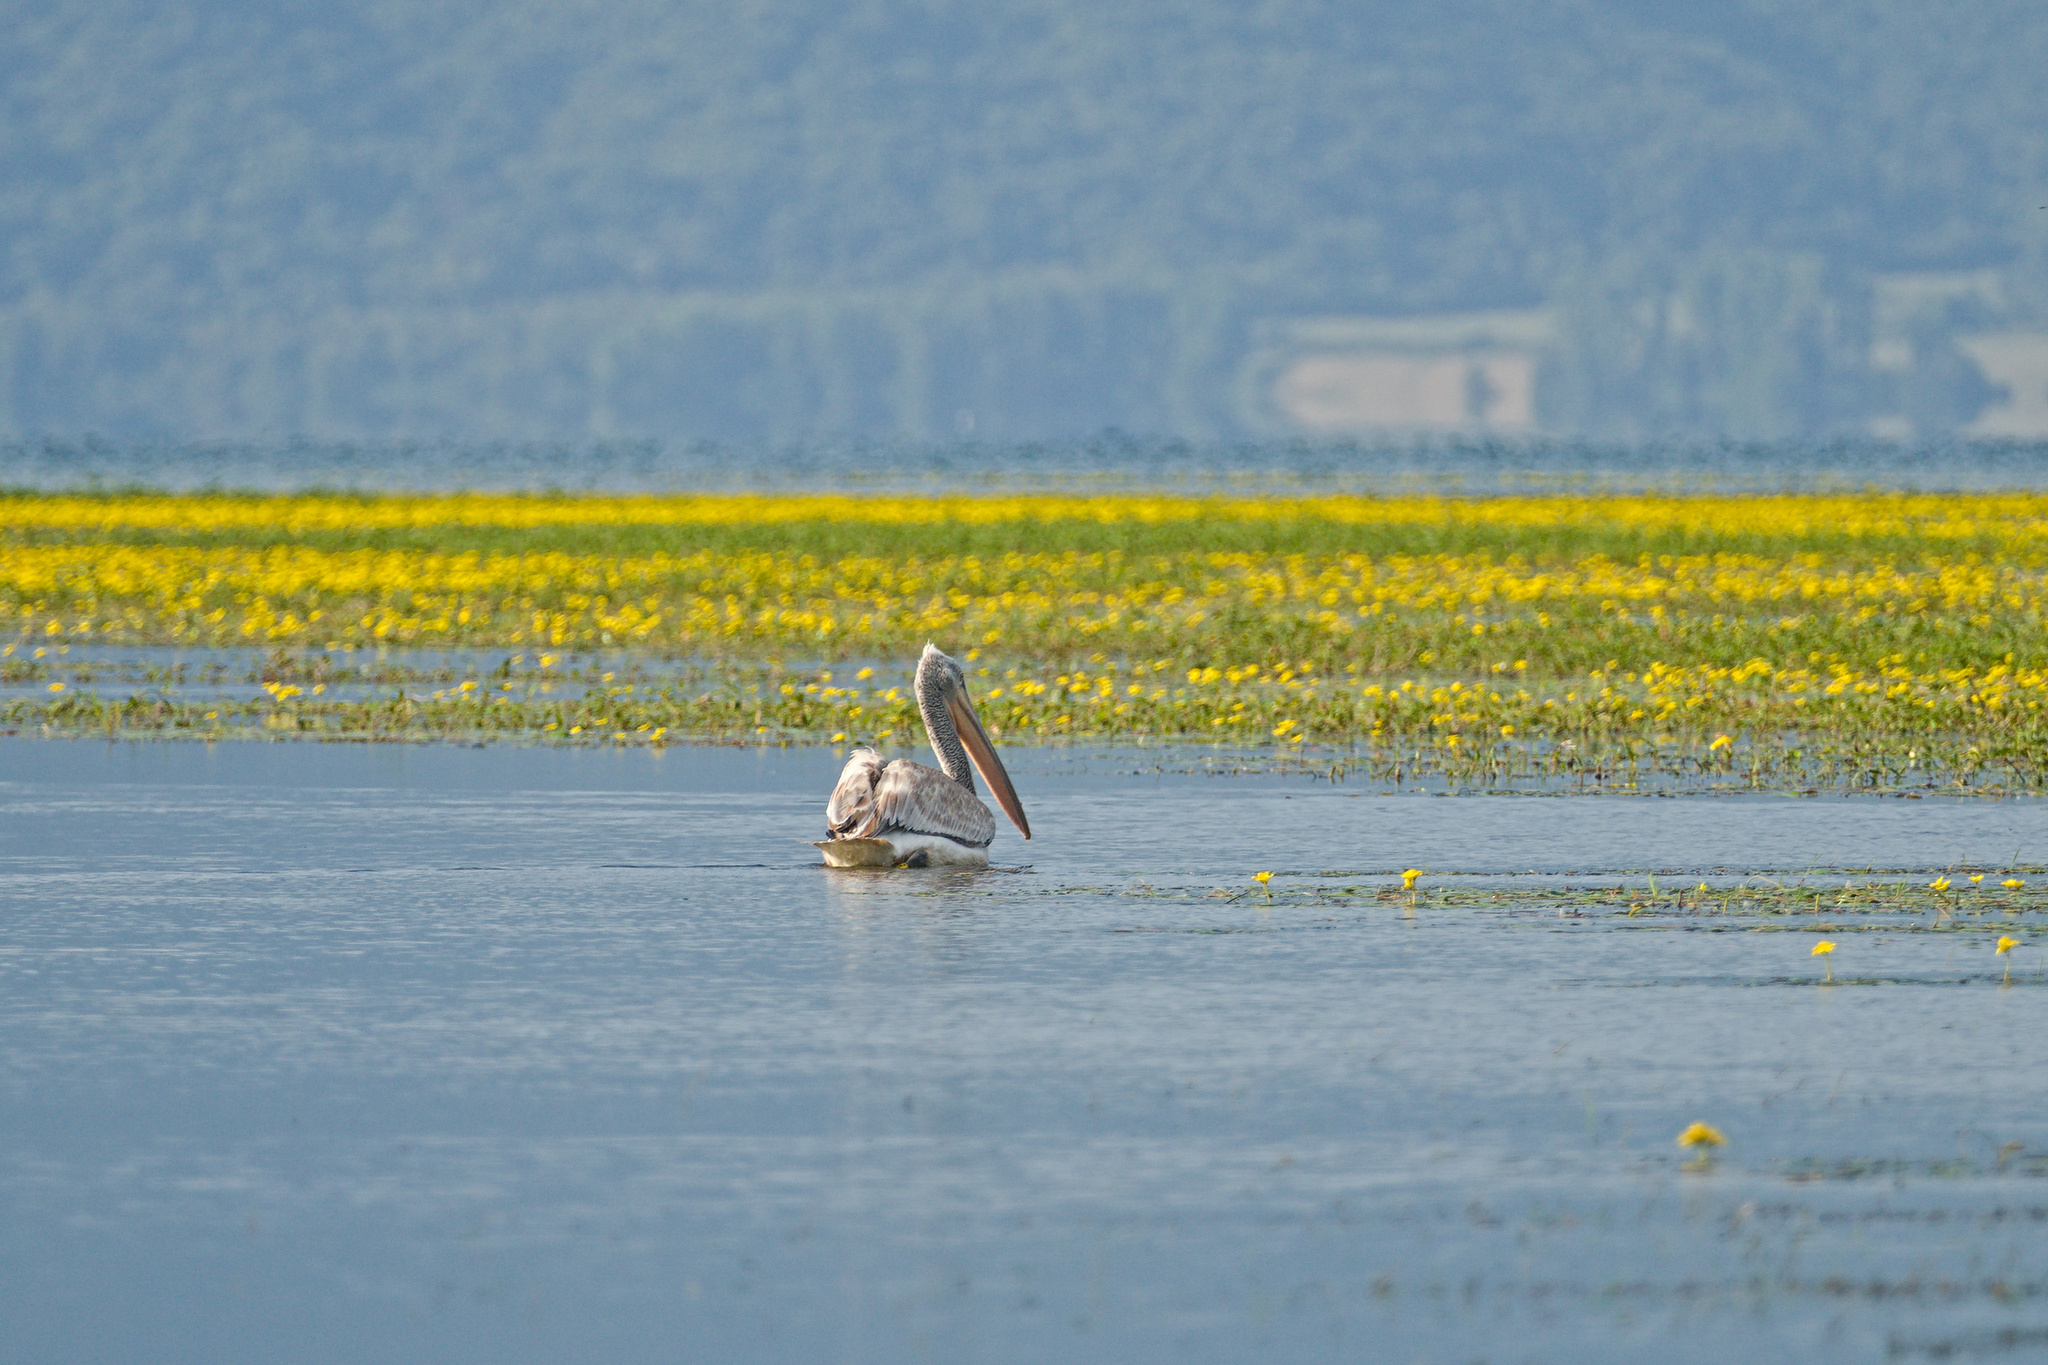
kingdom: Animalia
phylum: Chordata
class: Aves
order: Pelecaniformes
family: Pelecanidae
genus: Pelecanus
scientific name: Pelecanus crispus
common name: Dalmatian pelican
